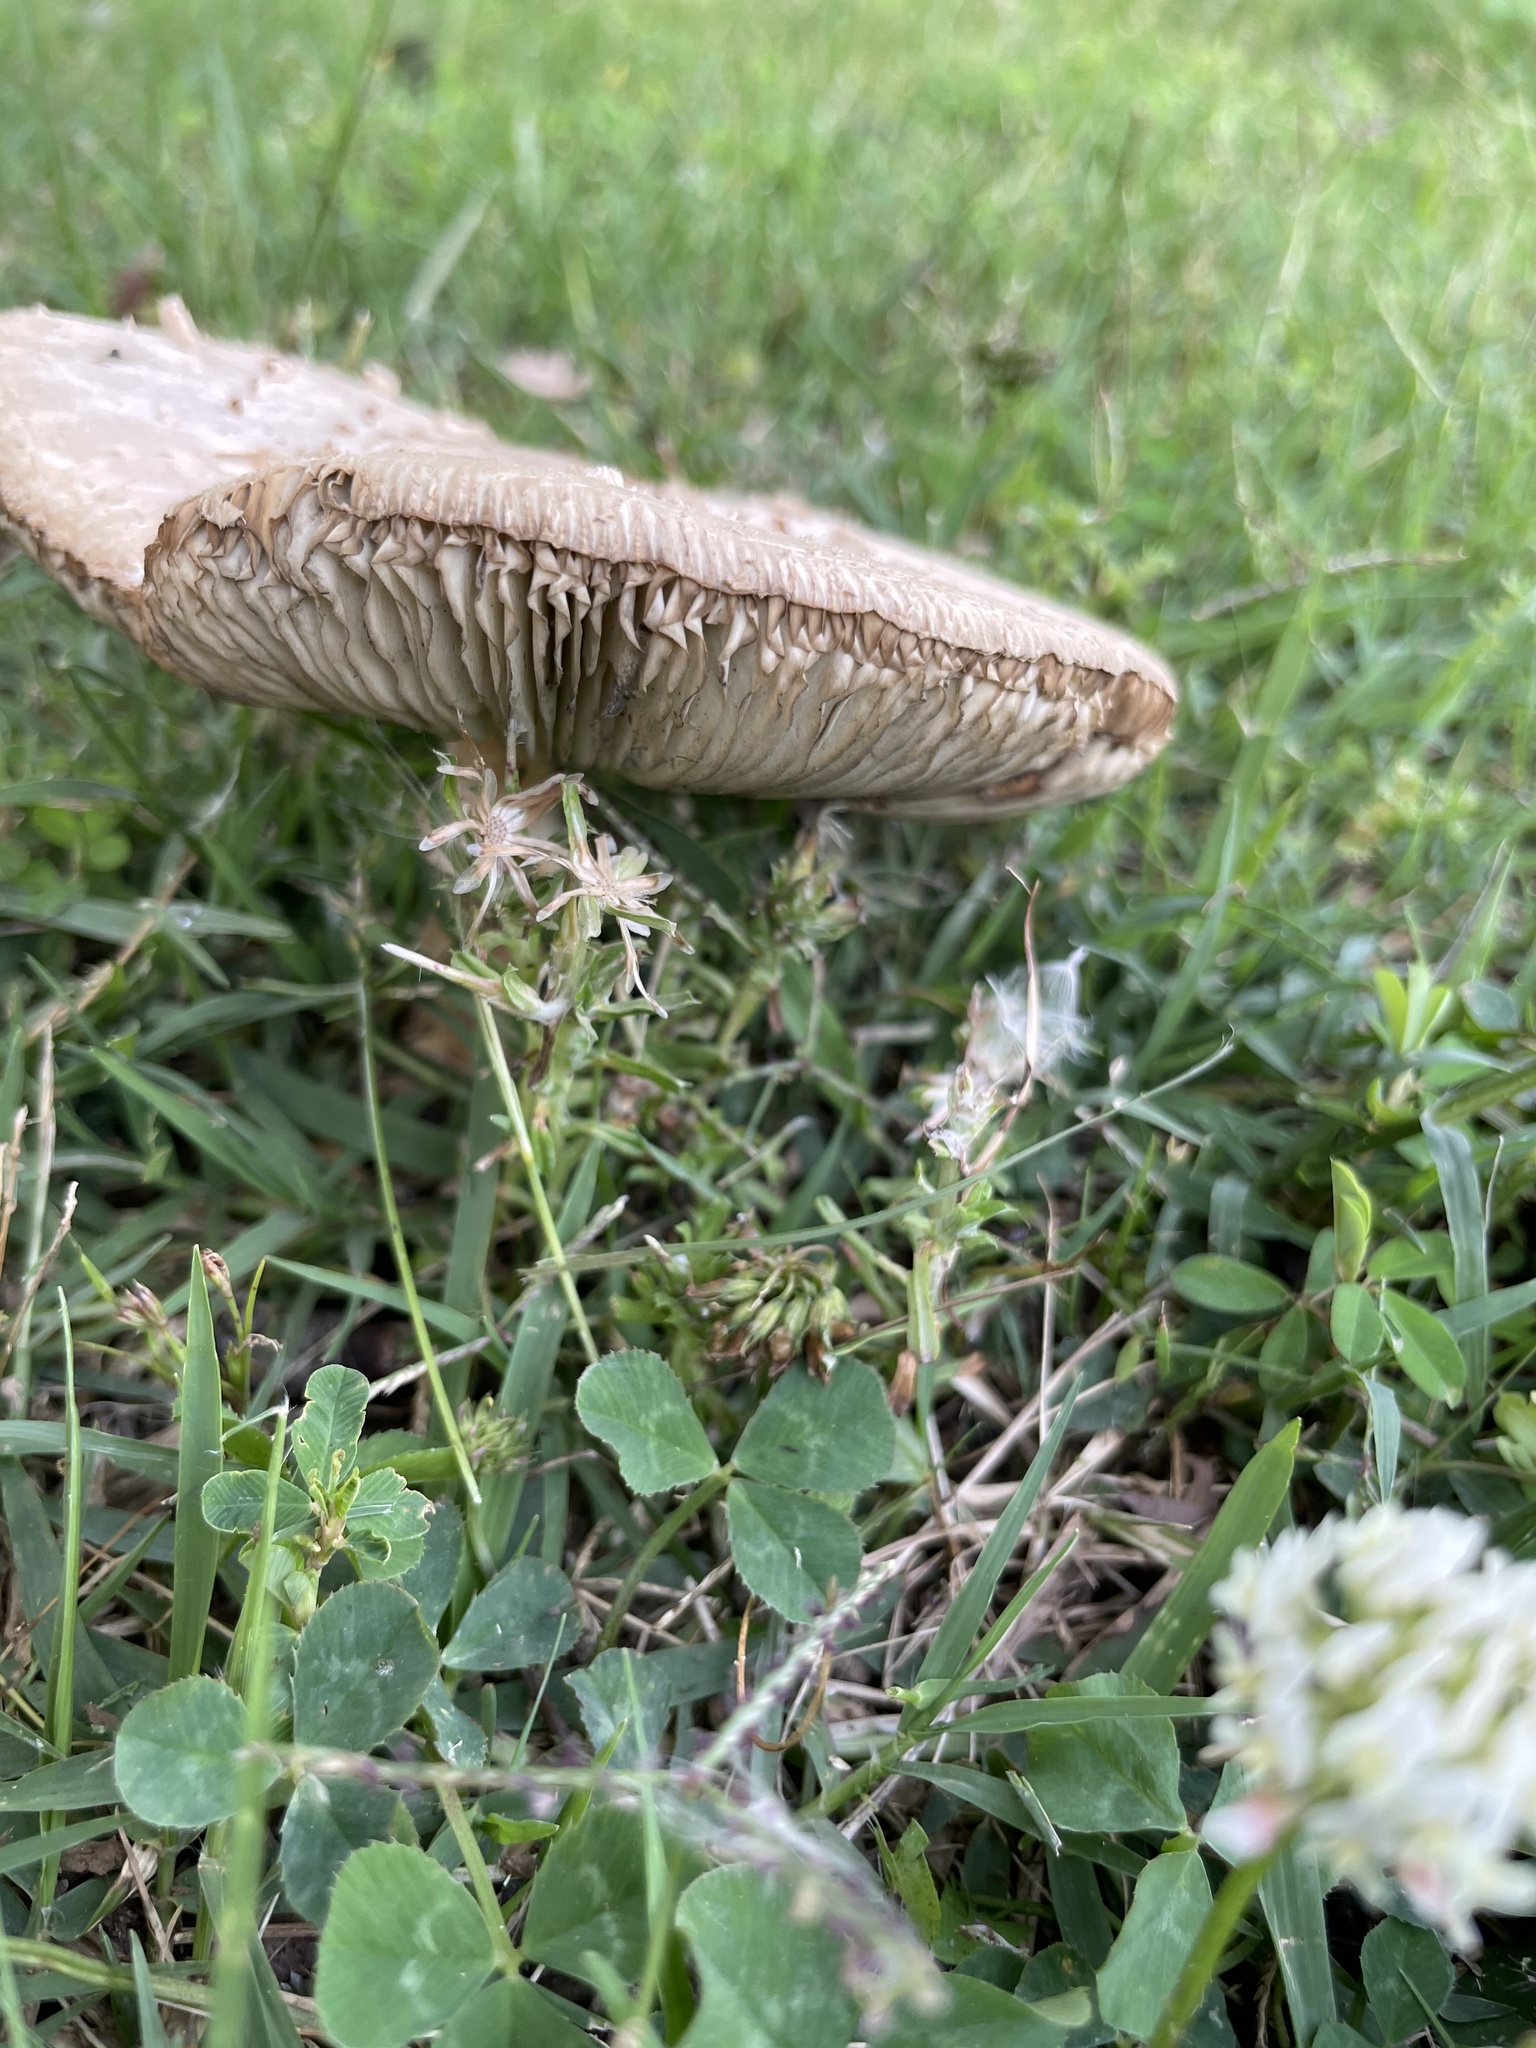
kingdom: Fungi
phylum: Basidiomycota
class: Agaricomycetes
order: Agaricales
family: Agaricaceae
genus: Chlorophyllum
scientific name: Chlorophyllum molybdites
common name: False parasol
